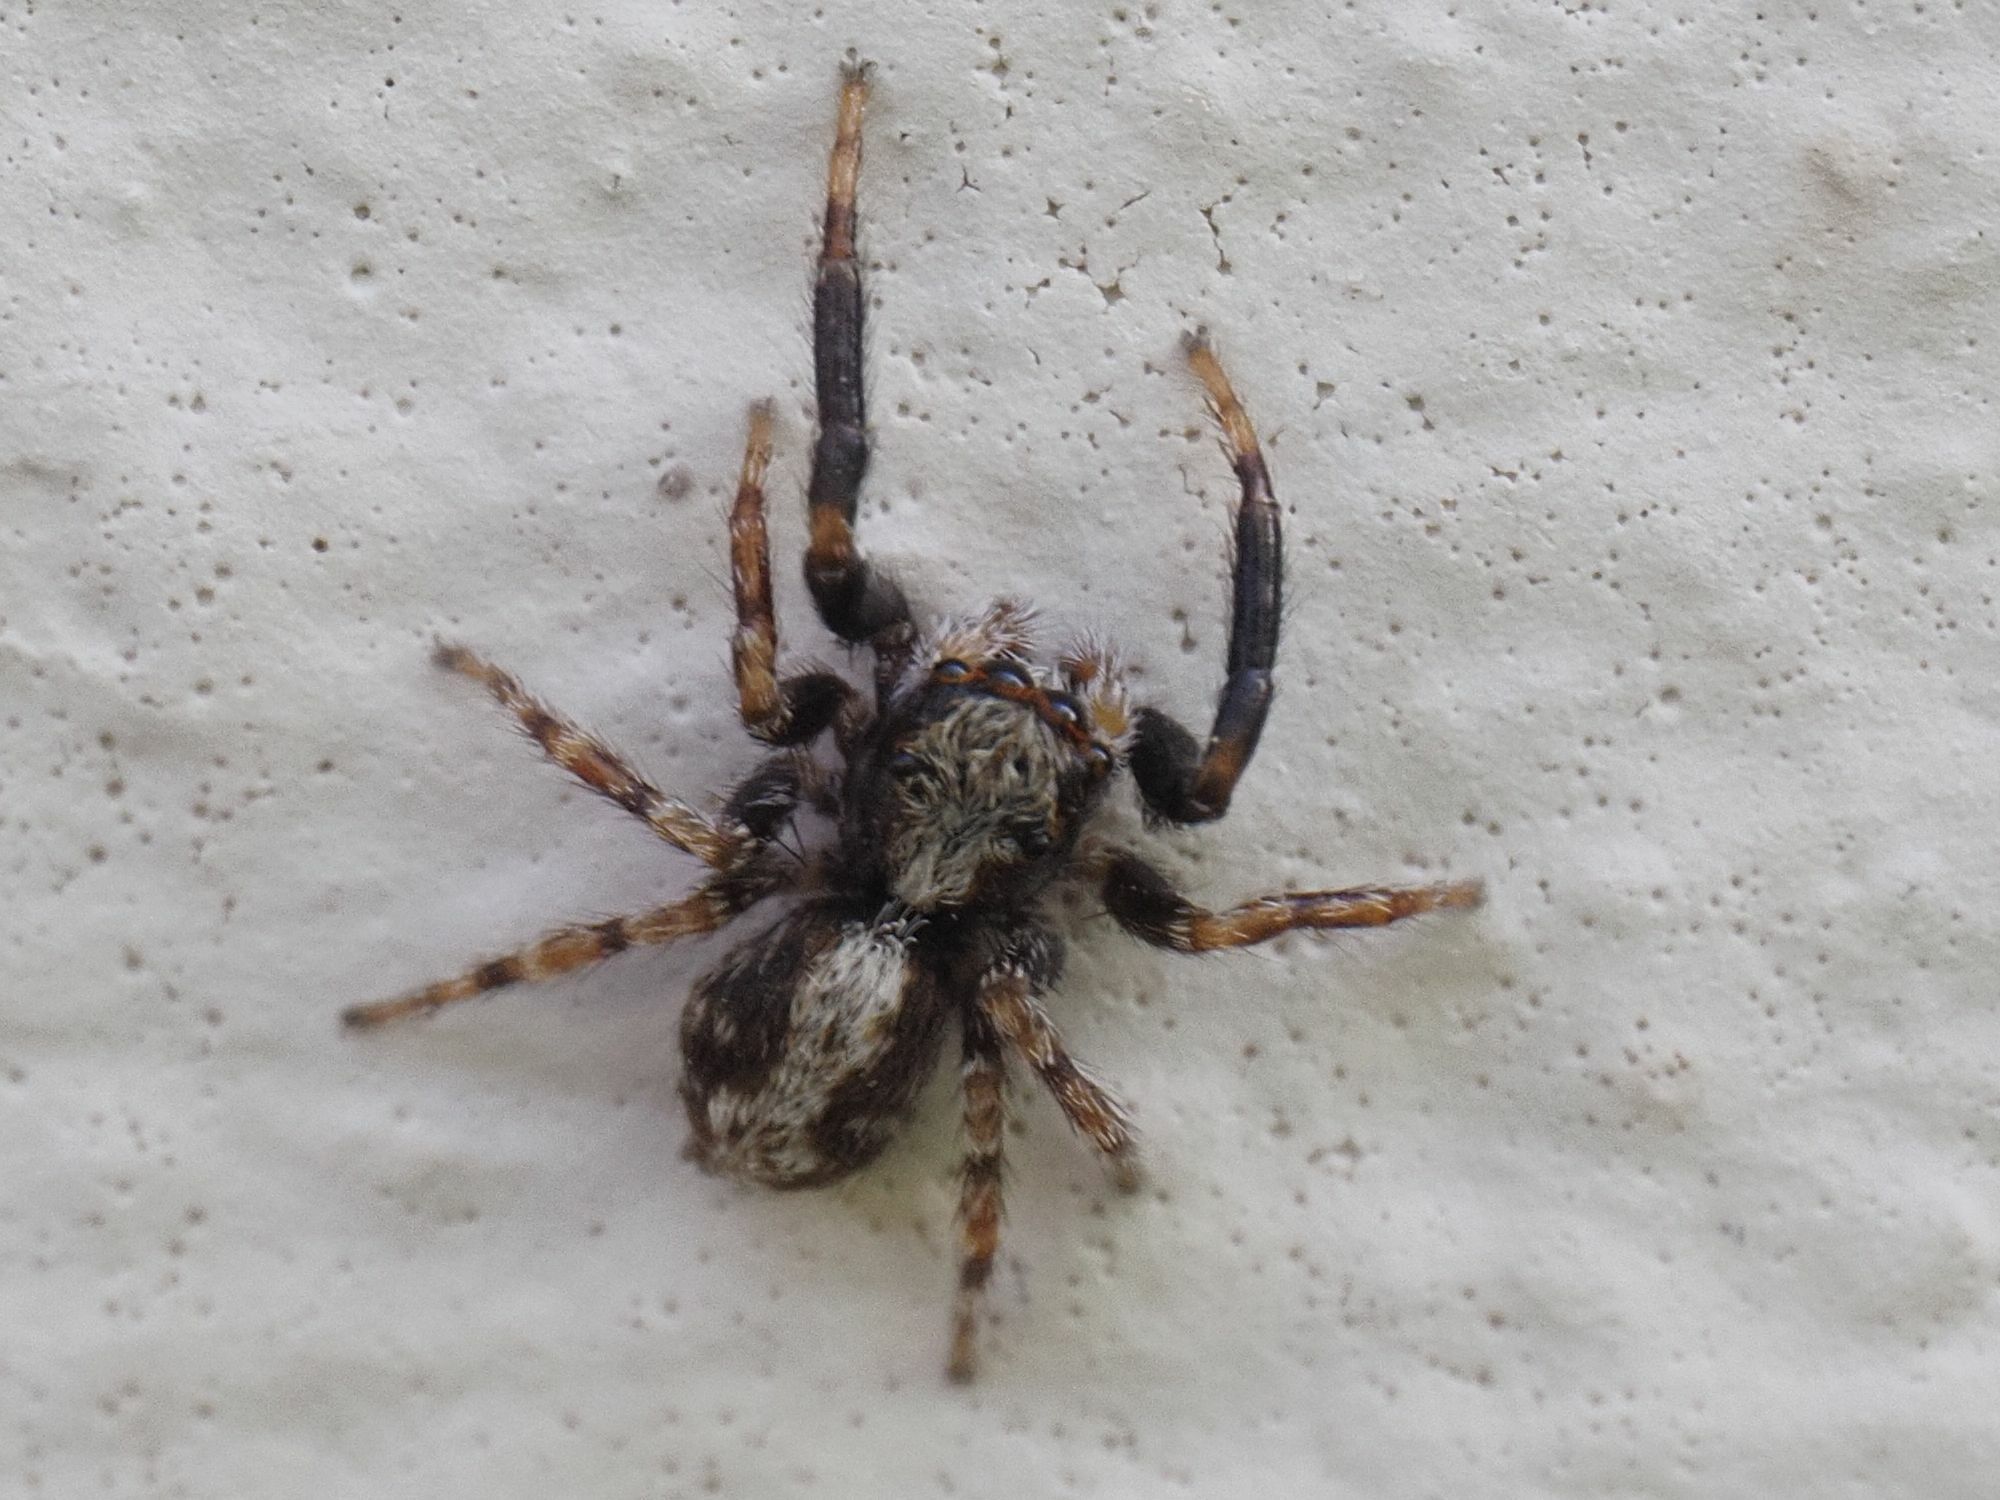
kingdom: Animalia
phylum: Arthropoda
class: Arachnida
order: Araneae
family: Salticidae
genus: Pseudeuophrys
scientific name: Pseudeuophrys lanigera
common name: Jumping spider
